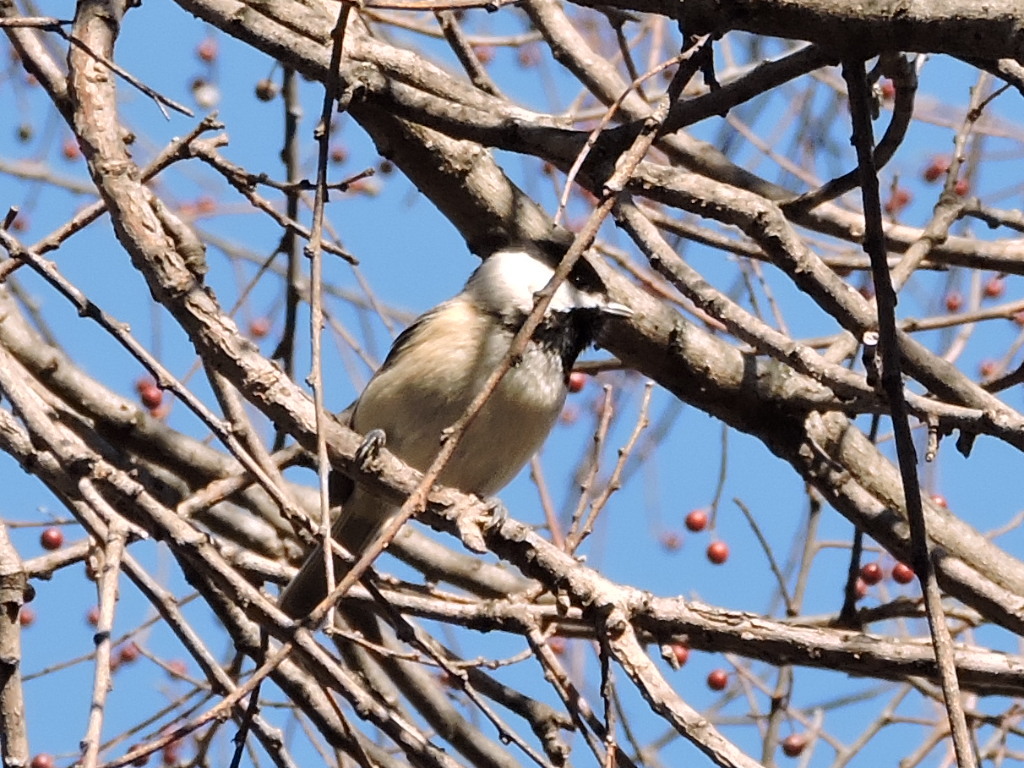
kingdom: Animalia
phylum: Chordata
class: Aves
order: Passeriformes
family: Paridae
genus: Poecile
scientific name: Poecile carolinensis
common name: Carolina chickadee
